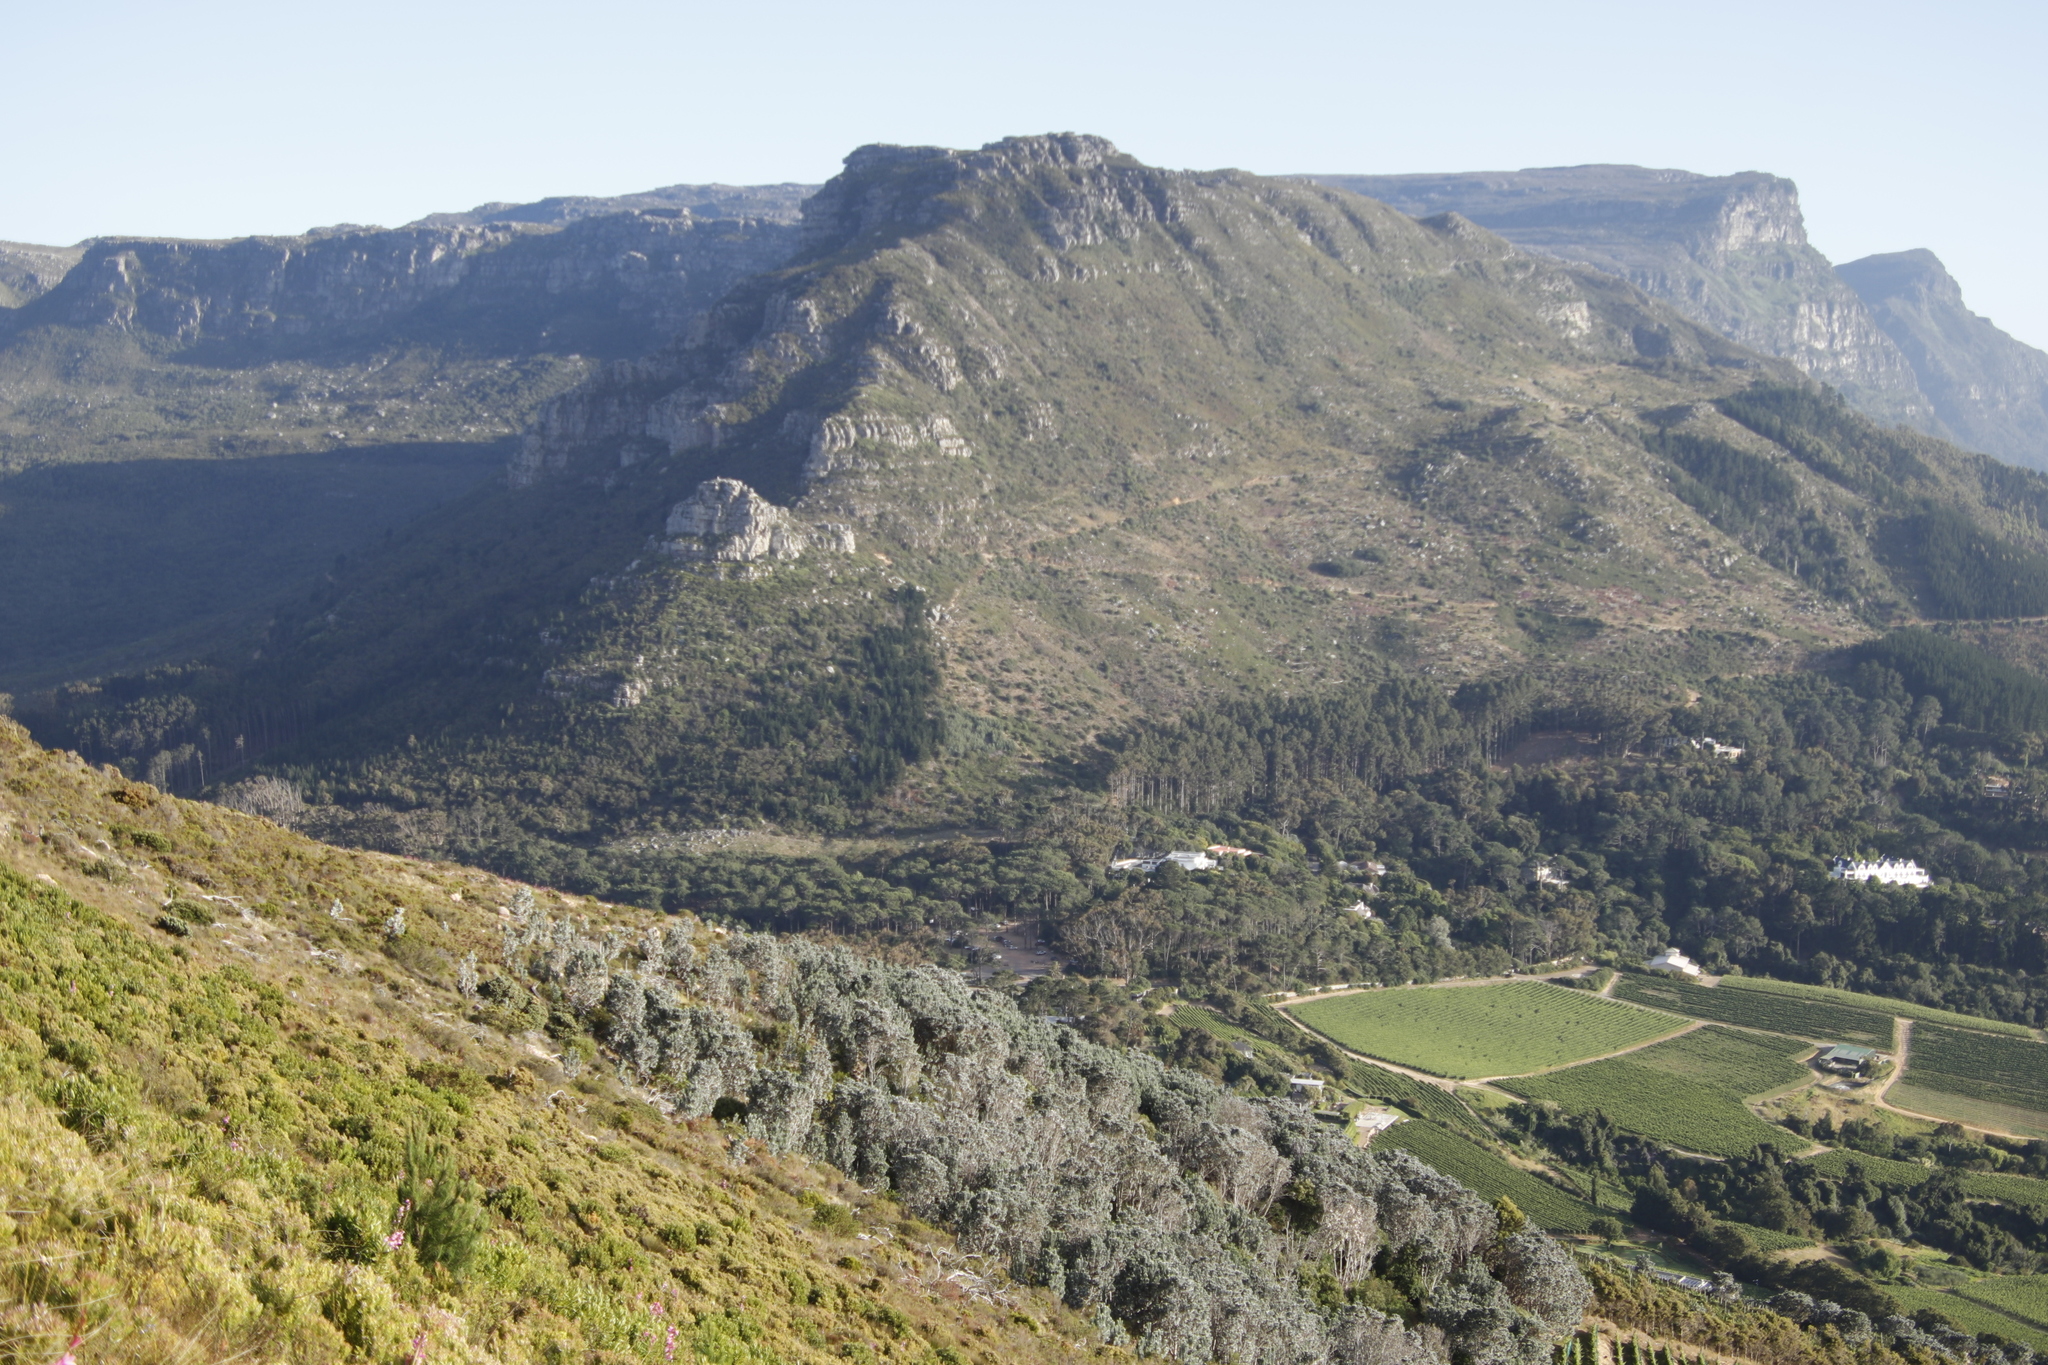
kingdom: Plantae
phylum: Tracheophyta
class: Magnoliopsida
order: Fabales
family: Fabaceae
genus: Acacia
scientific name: Acacia falciformis
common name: Tanning wattle
